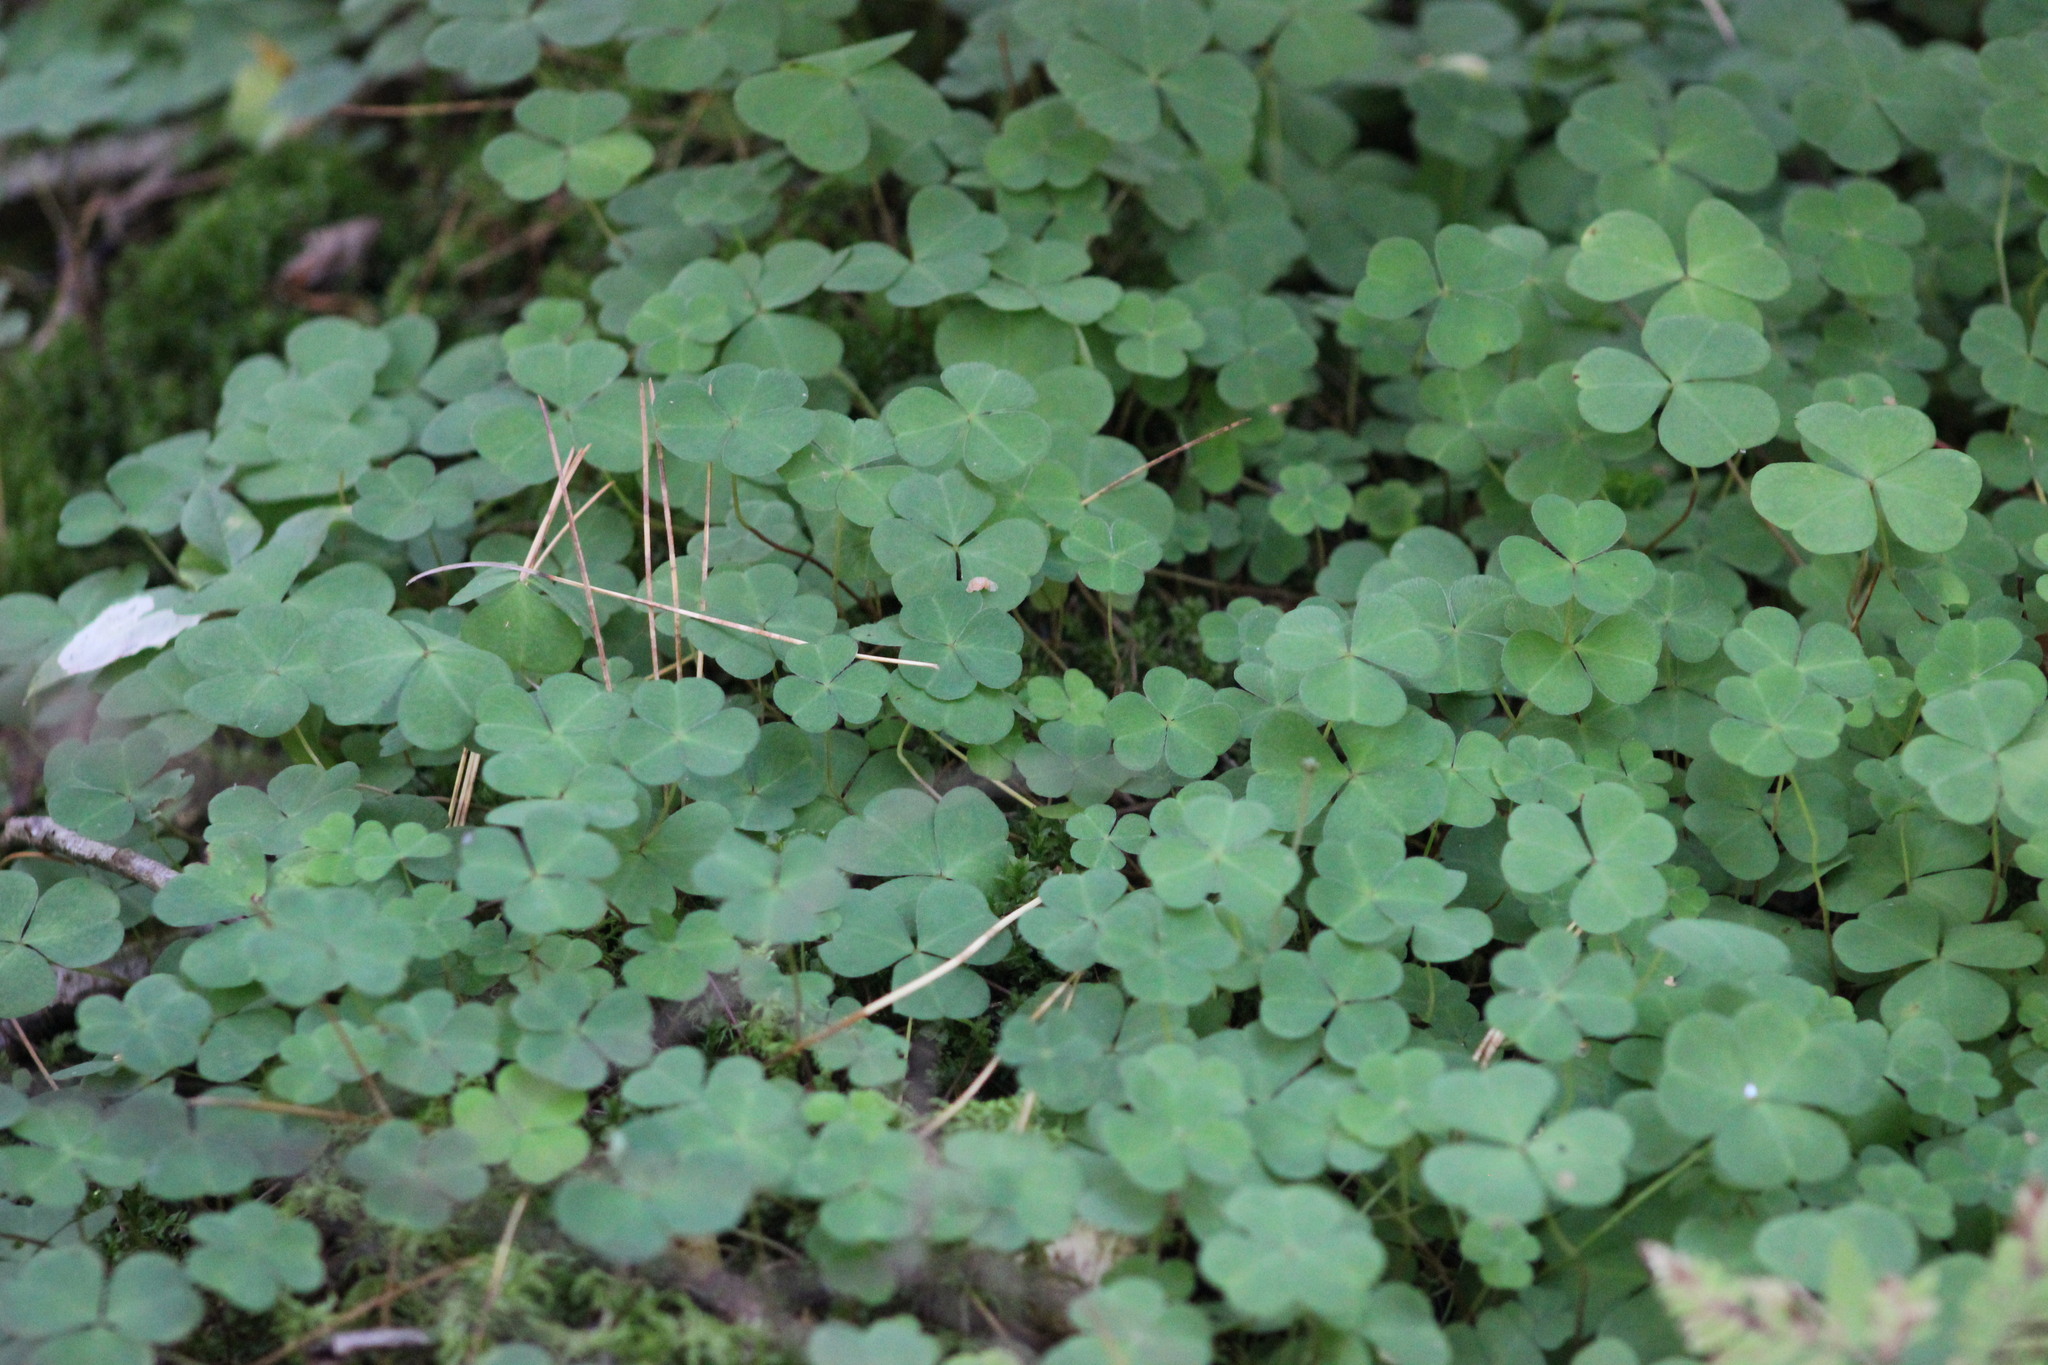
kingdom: Plantae
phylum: Tracheophyta
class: Magnoliopsida
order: Oxalidales
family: Oxalidaceae
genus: Oxalis
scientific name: Oxalis acetosella
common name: Wood-sorrel
